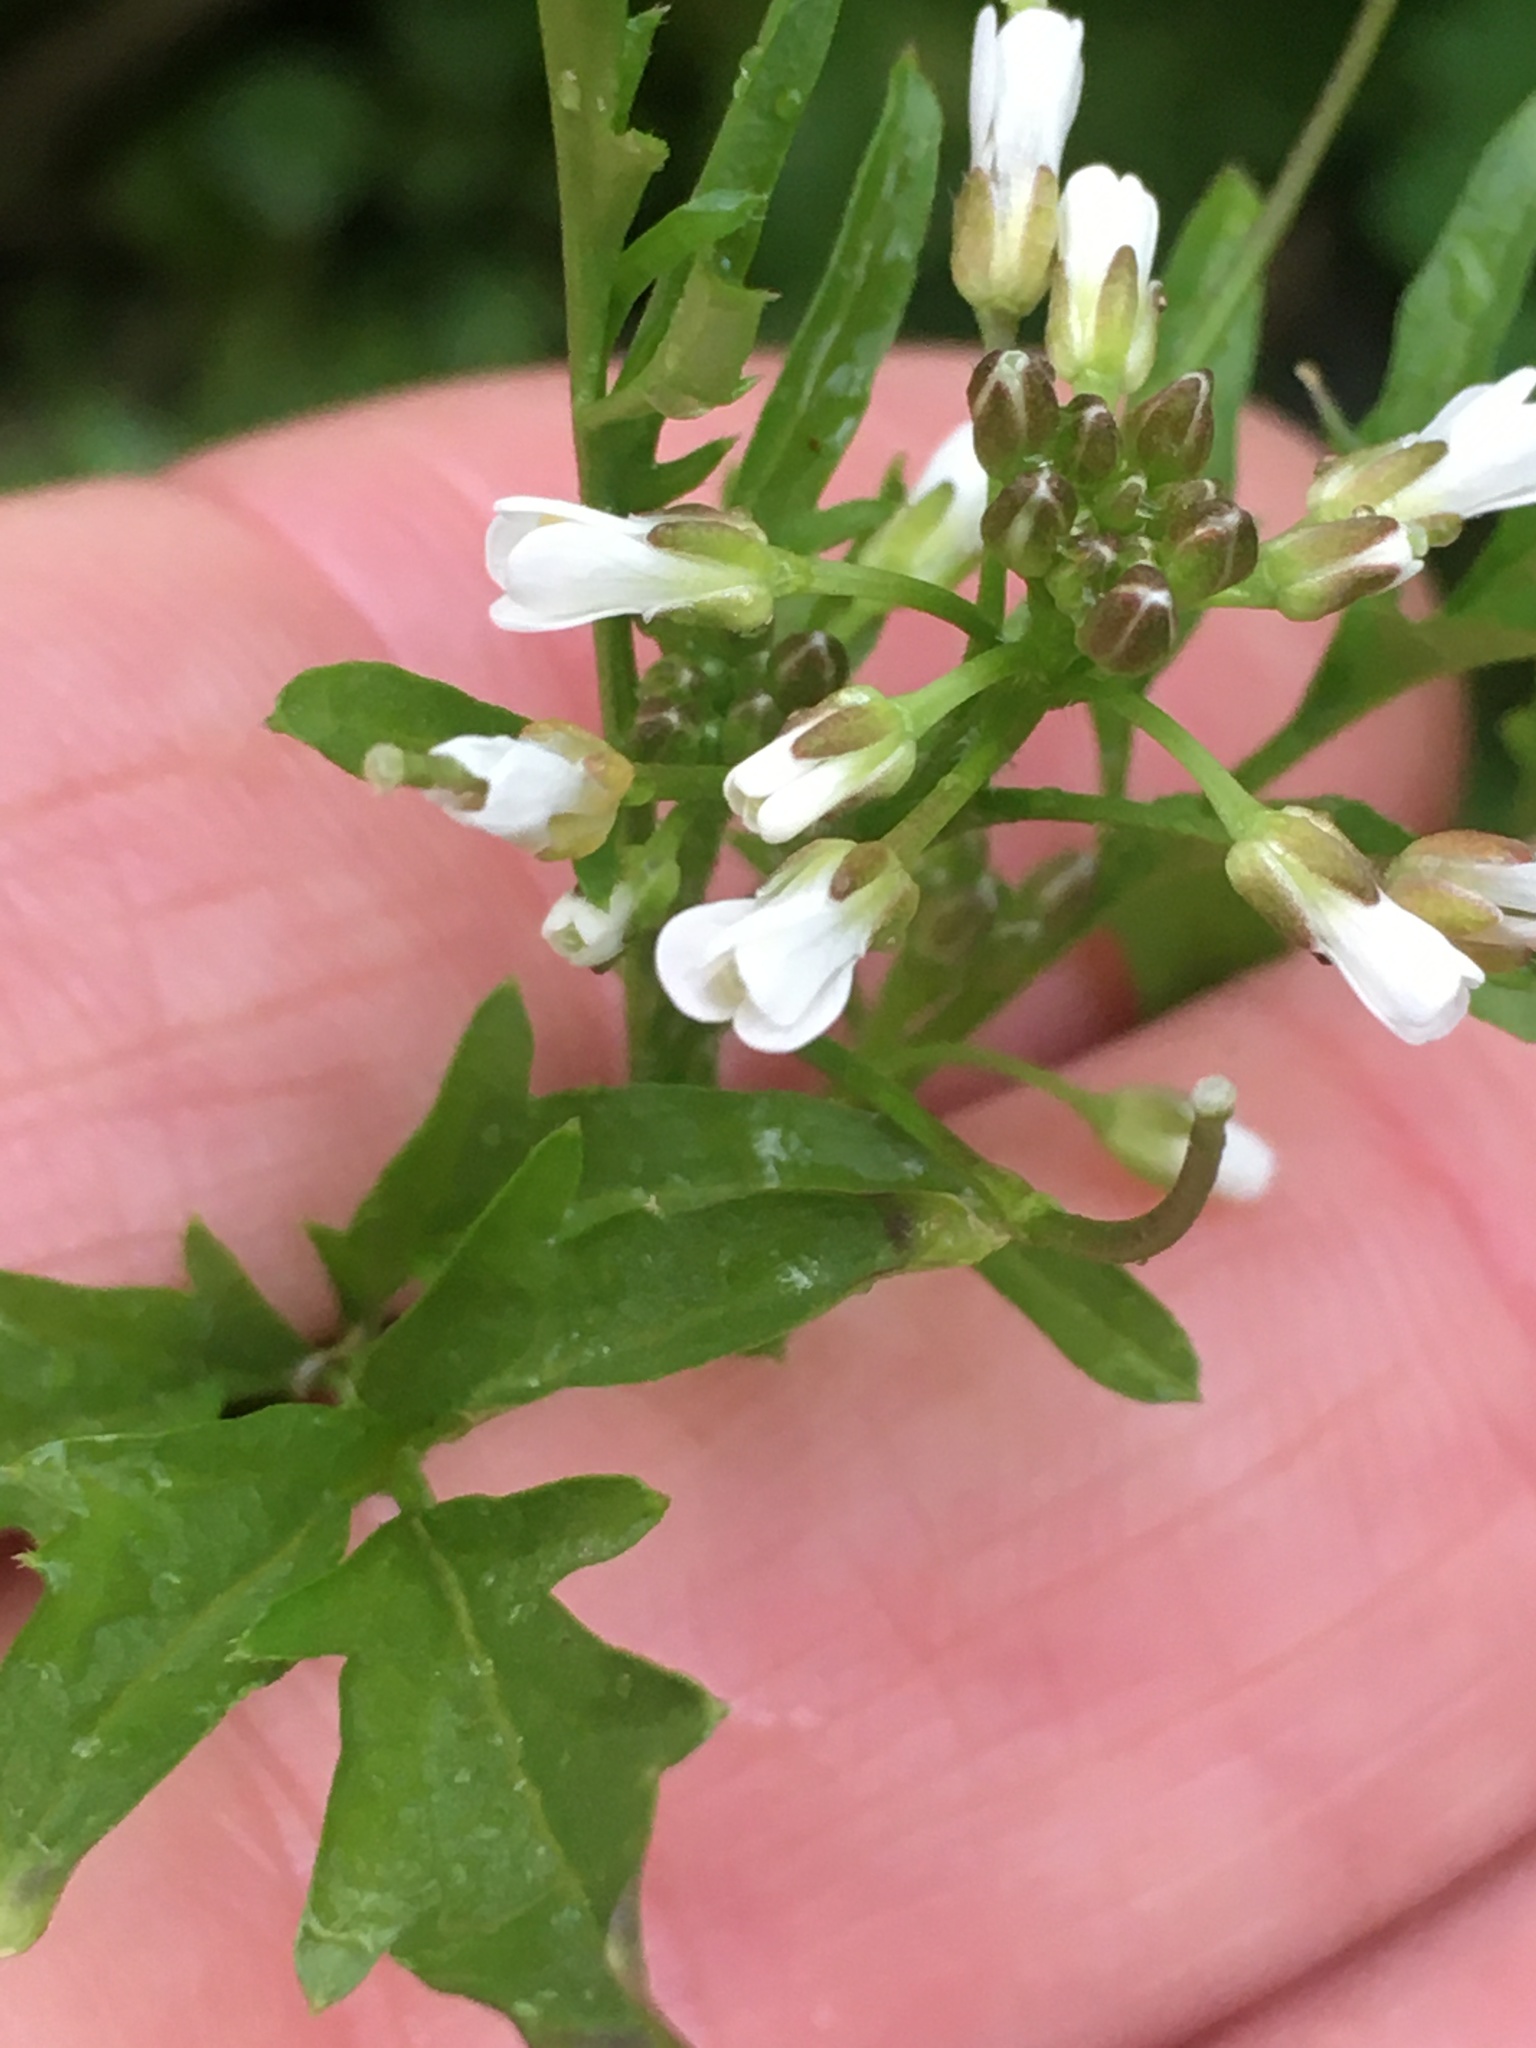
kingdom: Plantae
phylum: Tracheophyta
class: Magnoliopsida
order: Brassicales
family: Brassicaceae
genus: Cardamine
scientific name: Cardamine flexuosa
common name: Woodland bittercress
